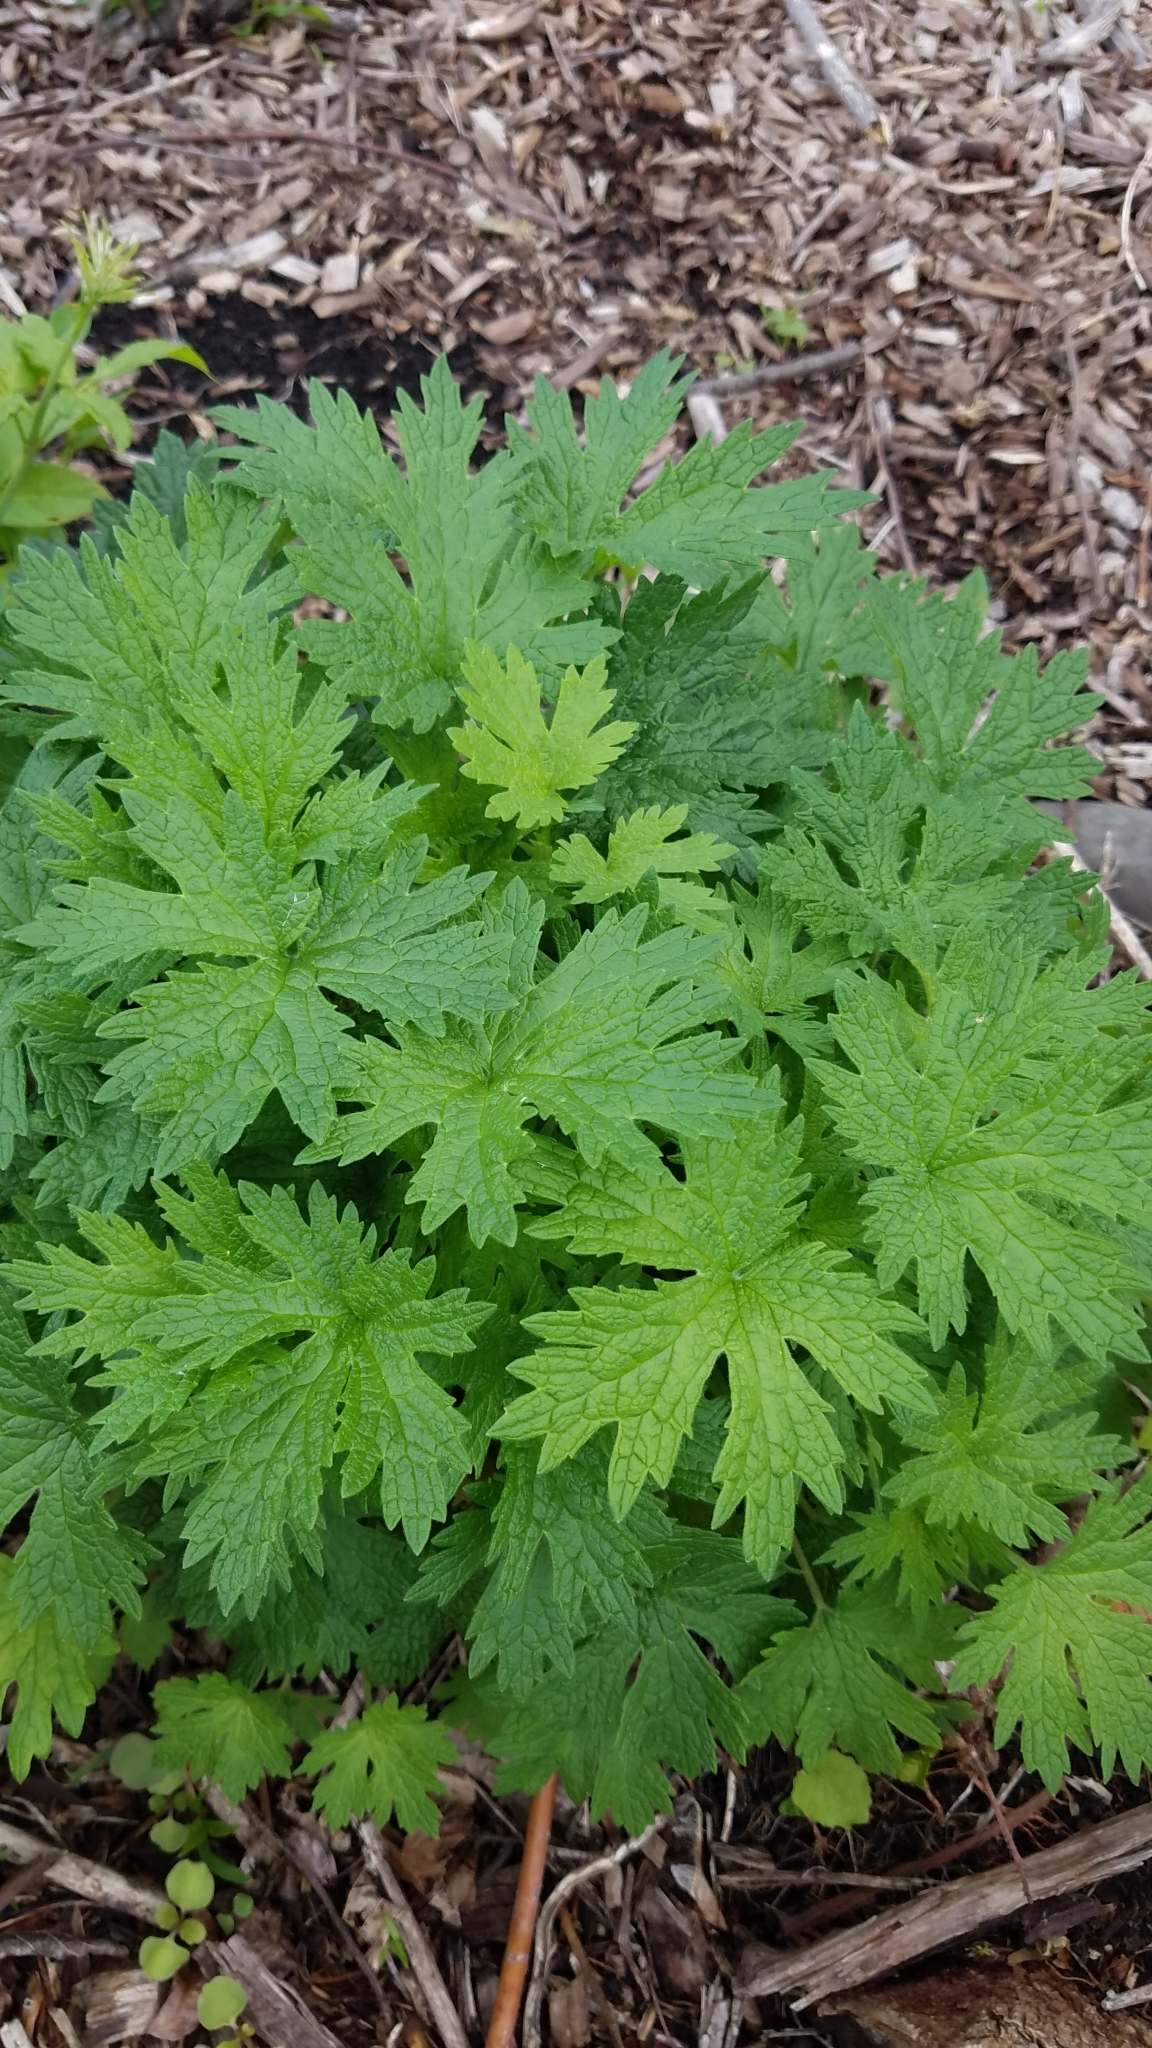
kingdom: Plantae
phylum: Tracheophyta
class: Magnoliopsida
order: Lamiales
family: Lamiaceae
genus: Leonurus
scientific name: Leonurus cardiaca
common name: Motherwort
